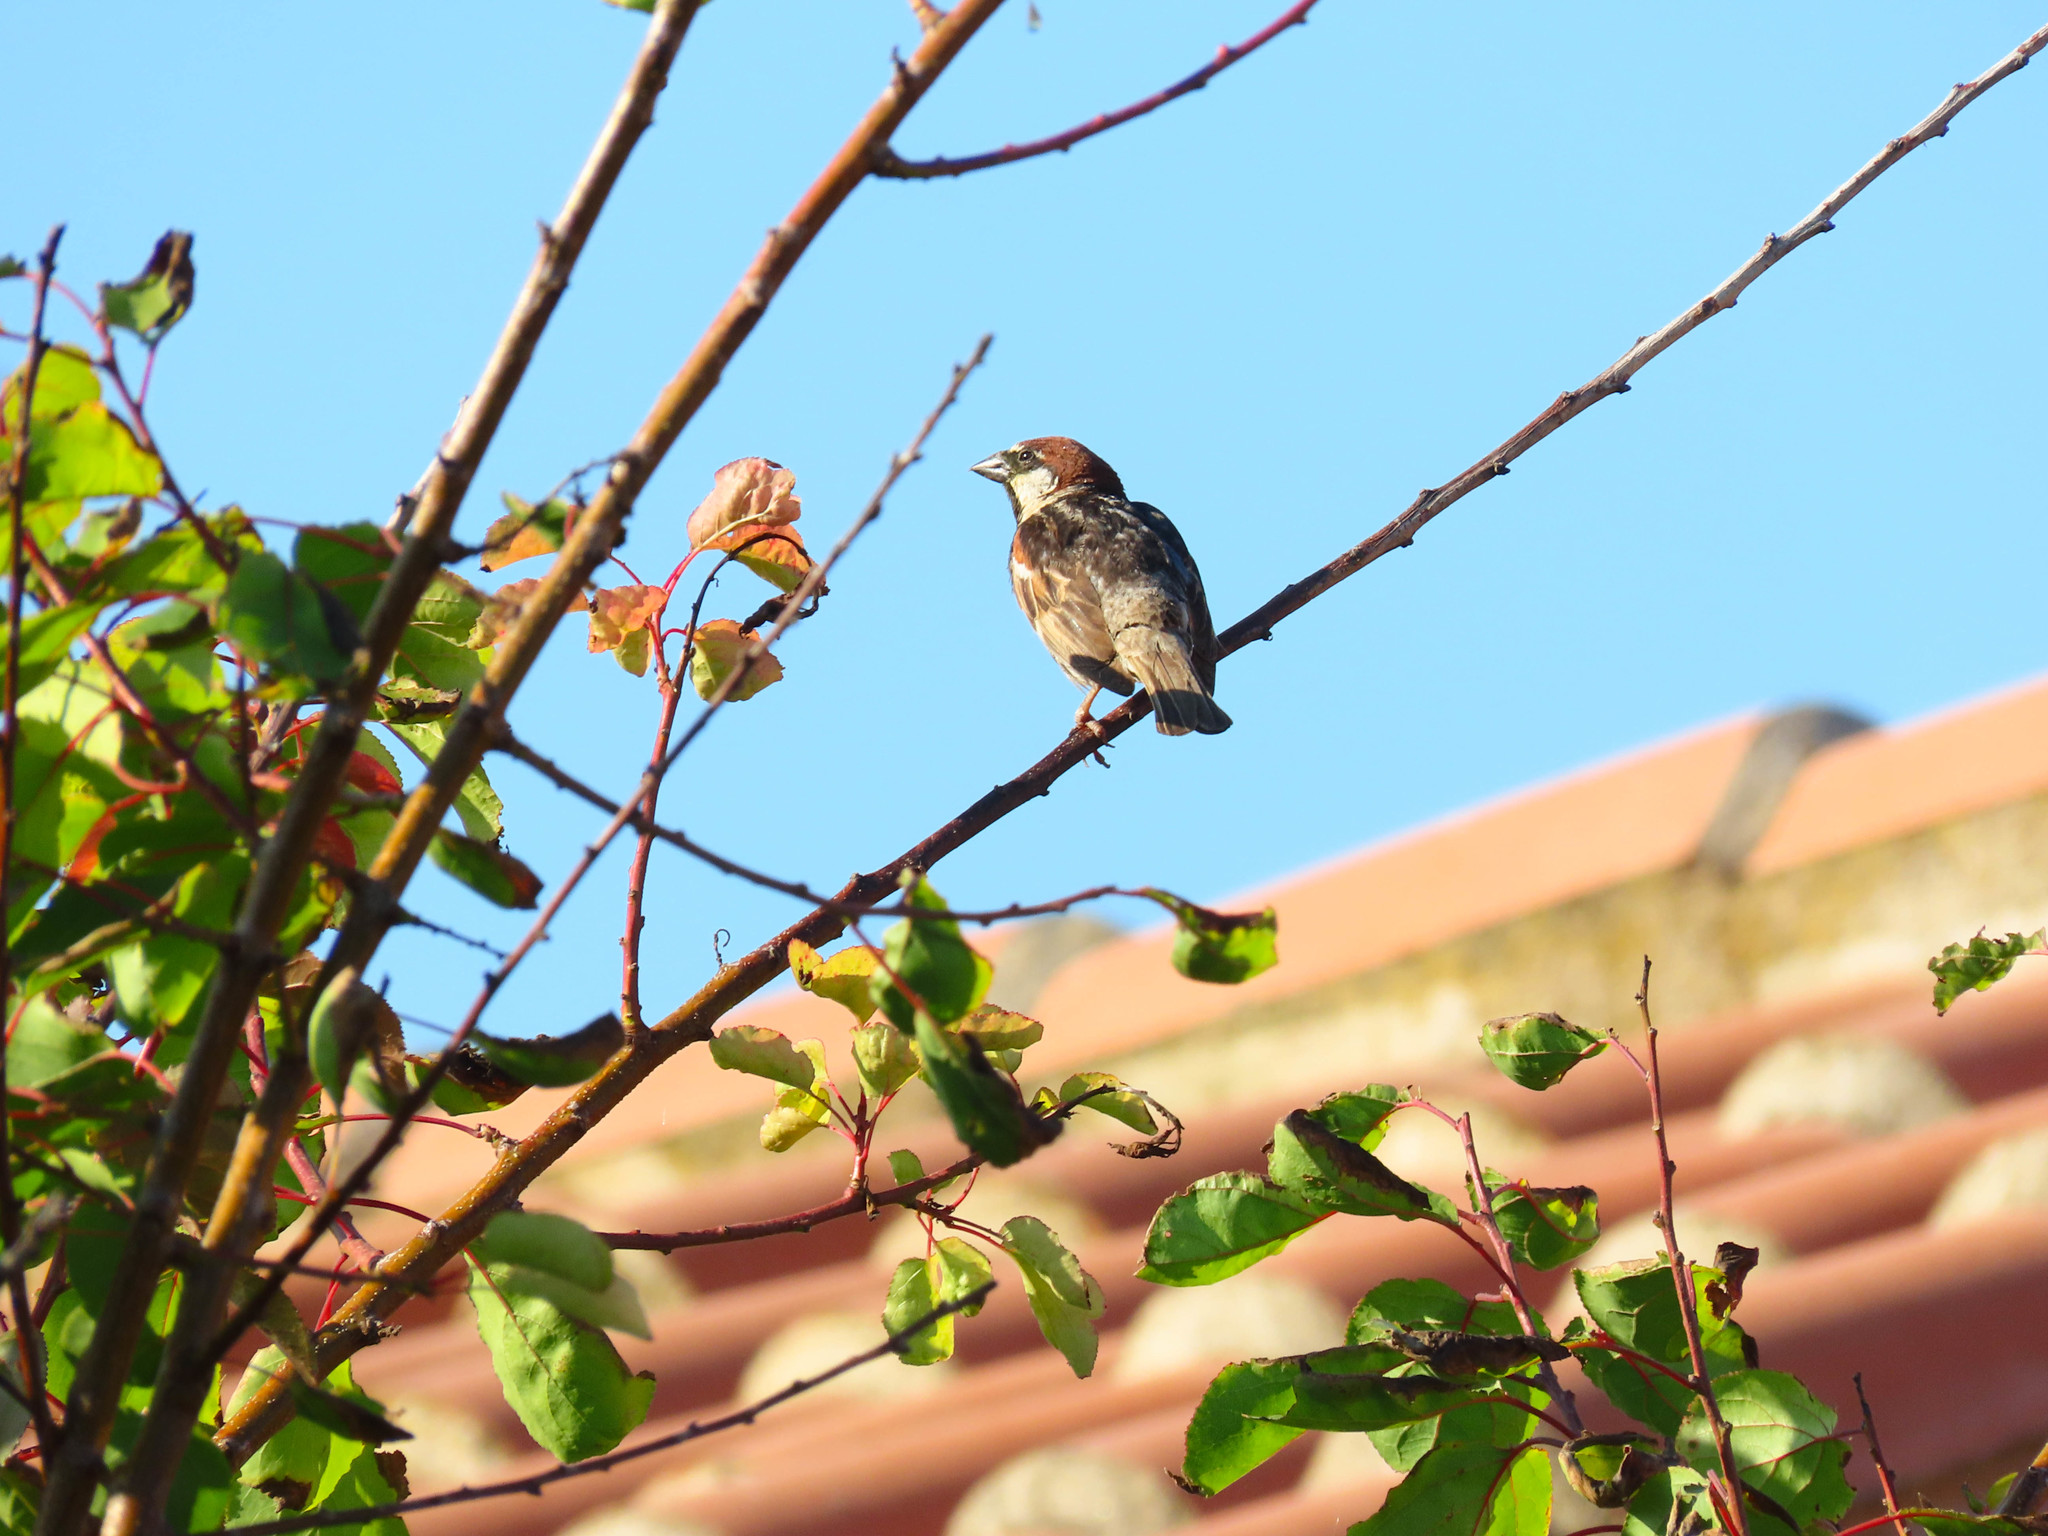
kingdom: Animalia
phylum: Chordata
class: Aves
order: Passeriformes
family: Passeridae
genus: Passer
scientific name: Passer hispaniolensis
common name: Spanish sparrow
